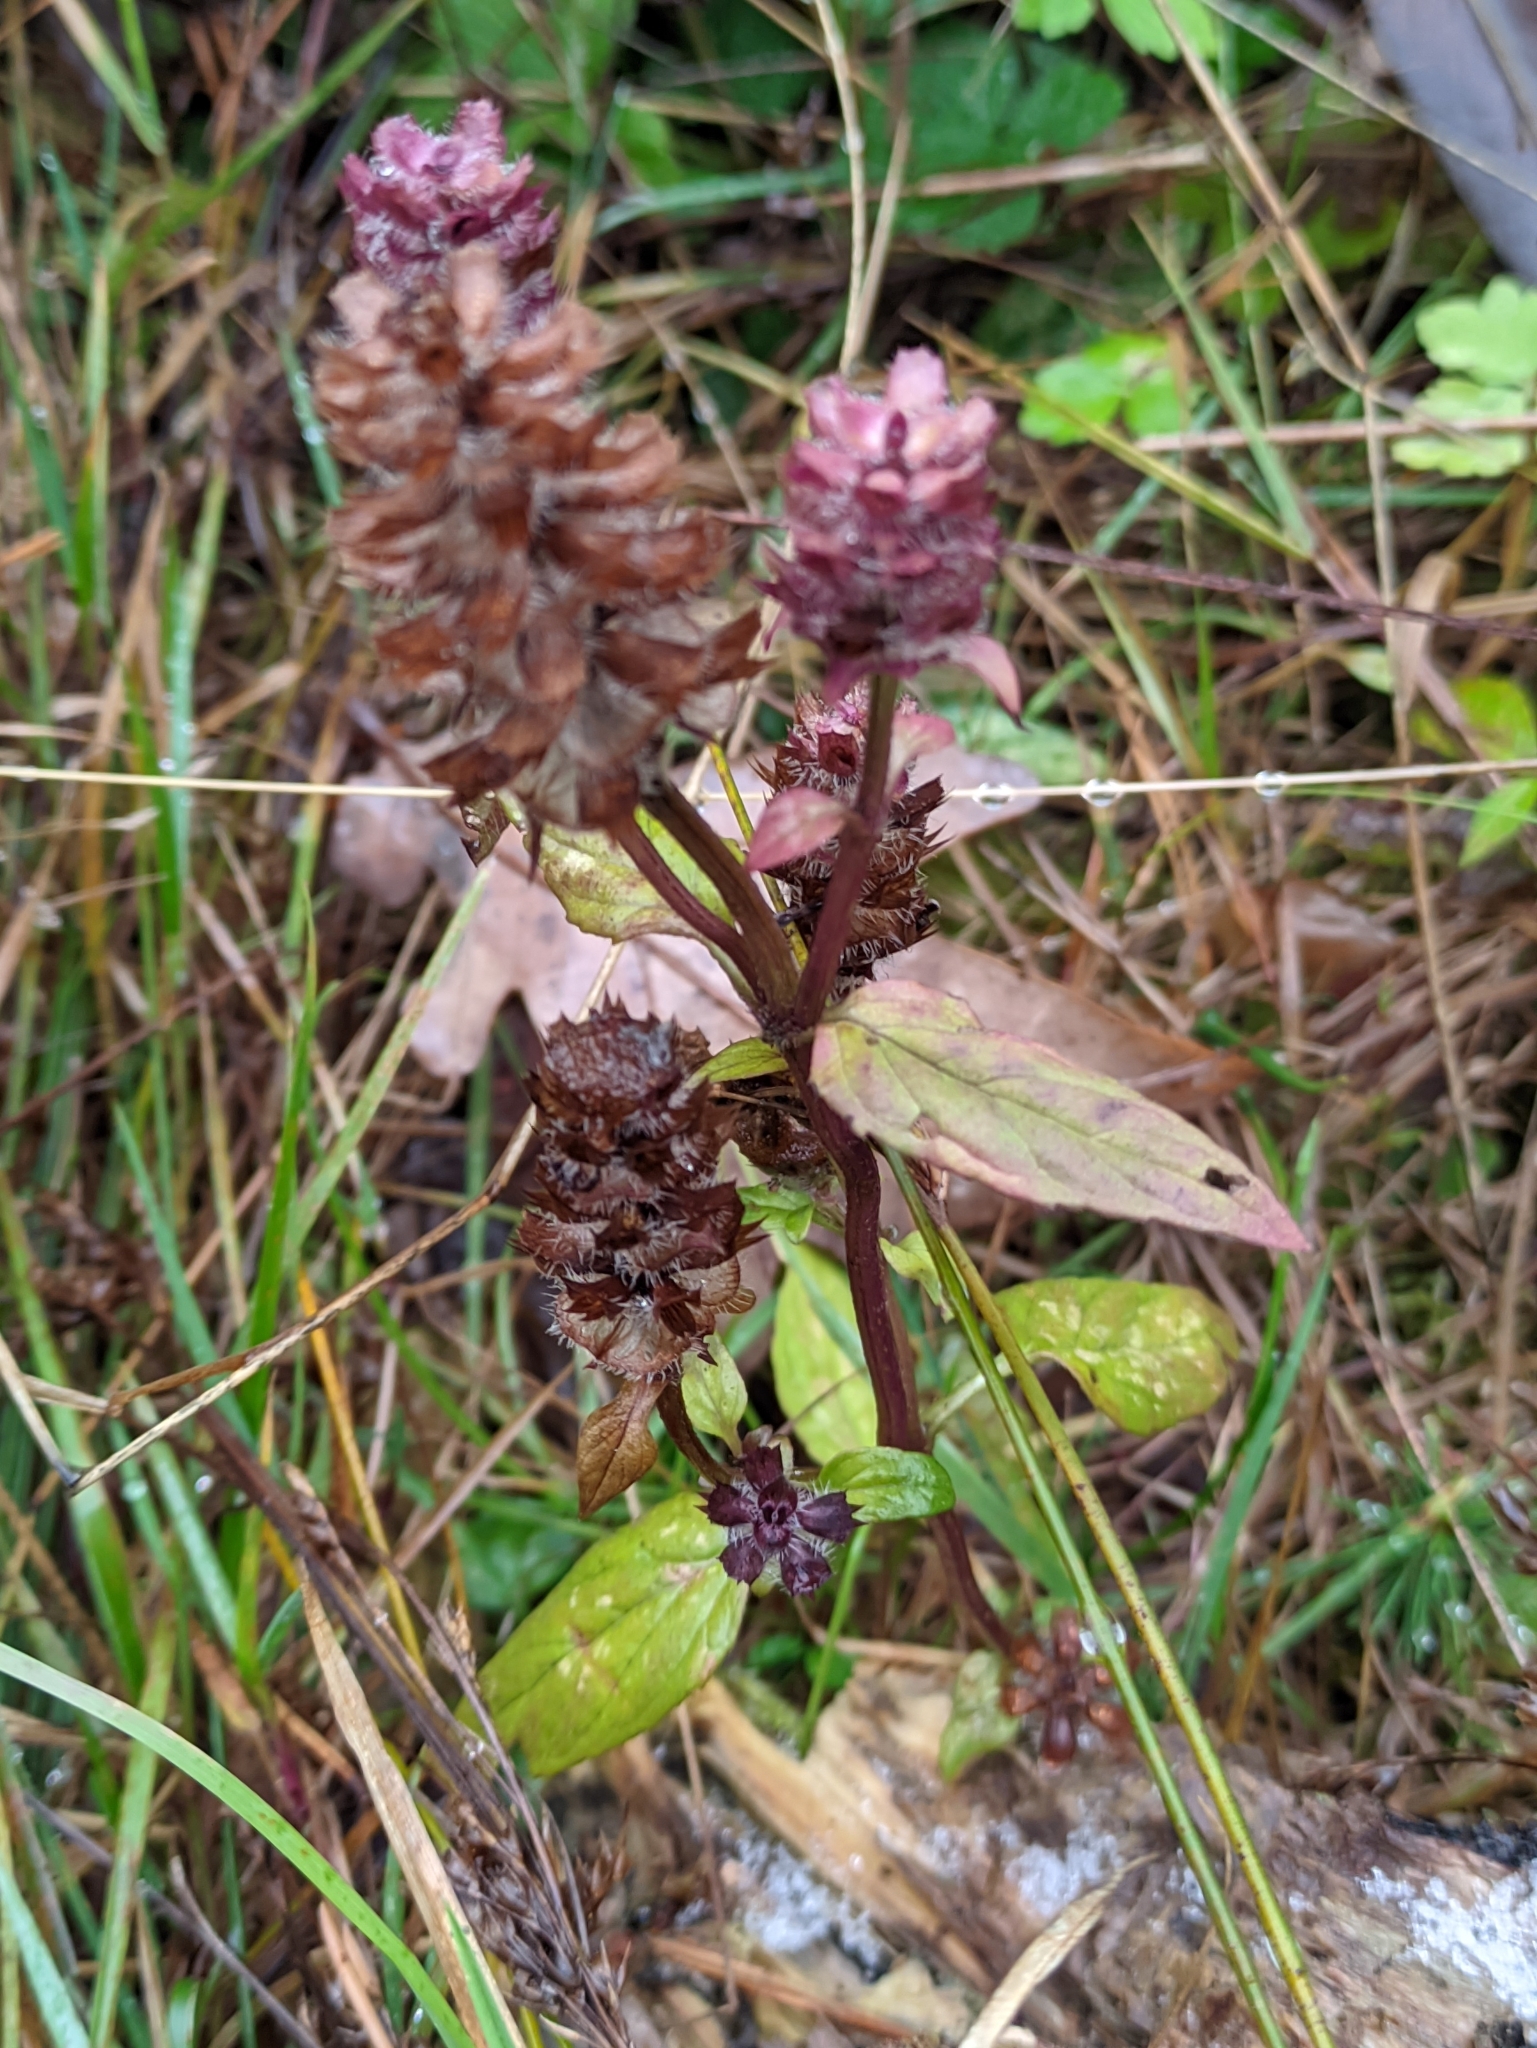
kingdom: Plantae
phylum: Tracheophyta
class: Magnoliopsida
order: Lamiales
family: Lamiaceae
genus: Prunella
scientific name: Prunella vulgaris
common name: Heal-all
